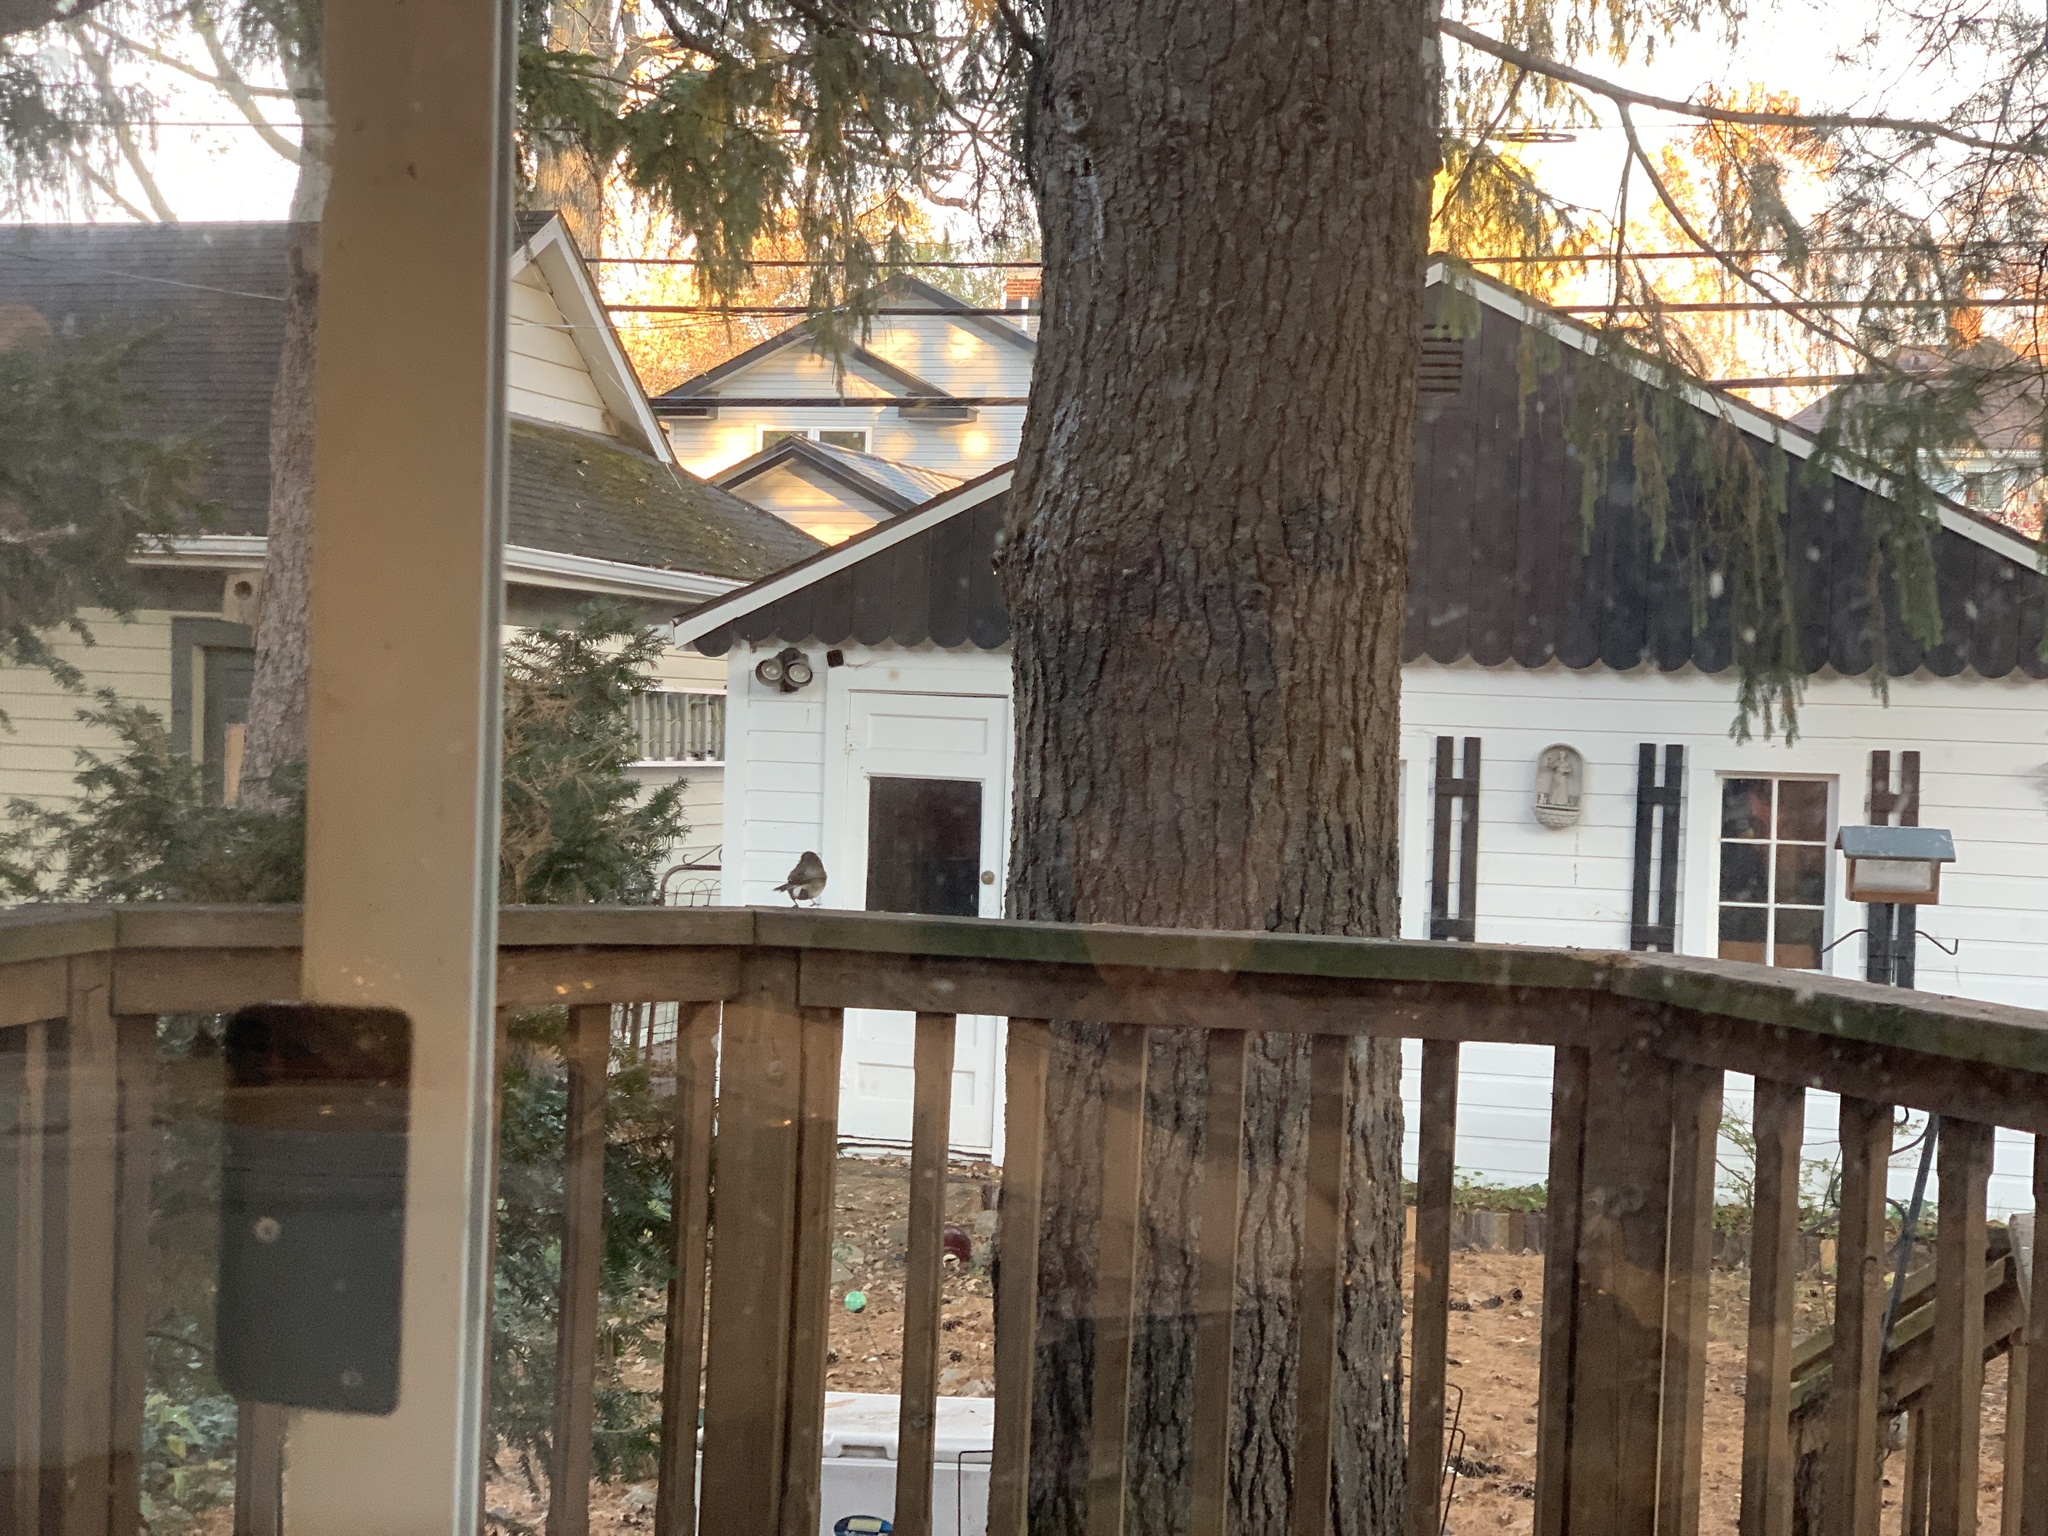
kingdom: Animalia
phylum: Chordata
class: Aves
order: Passeriformes
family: Passerellidae
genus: Junco
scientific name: Junco hyemalis
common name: Dark-eyed junco
